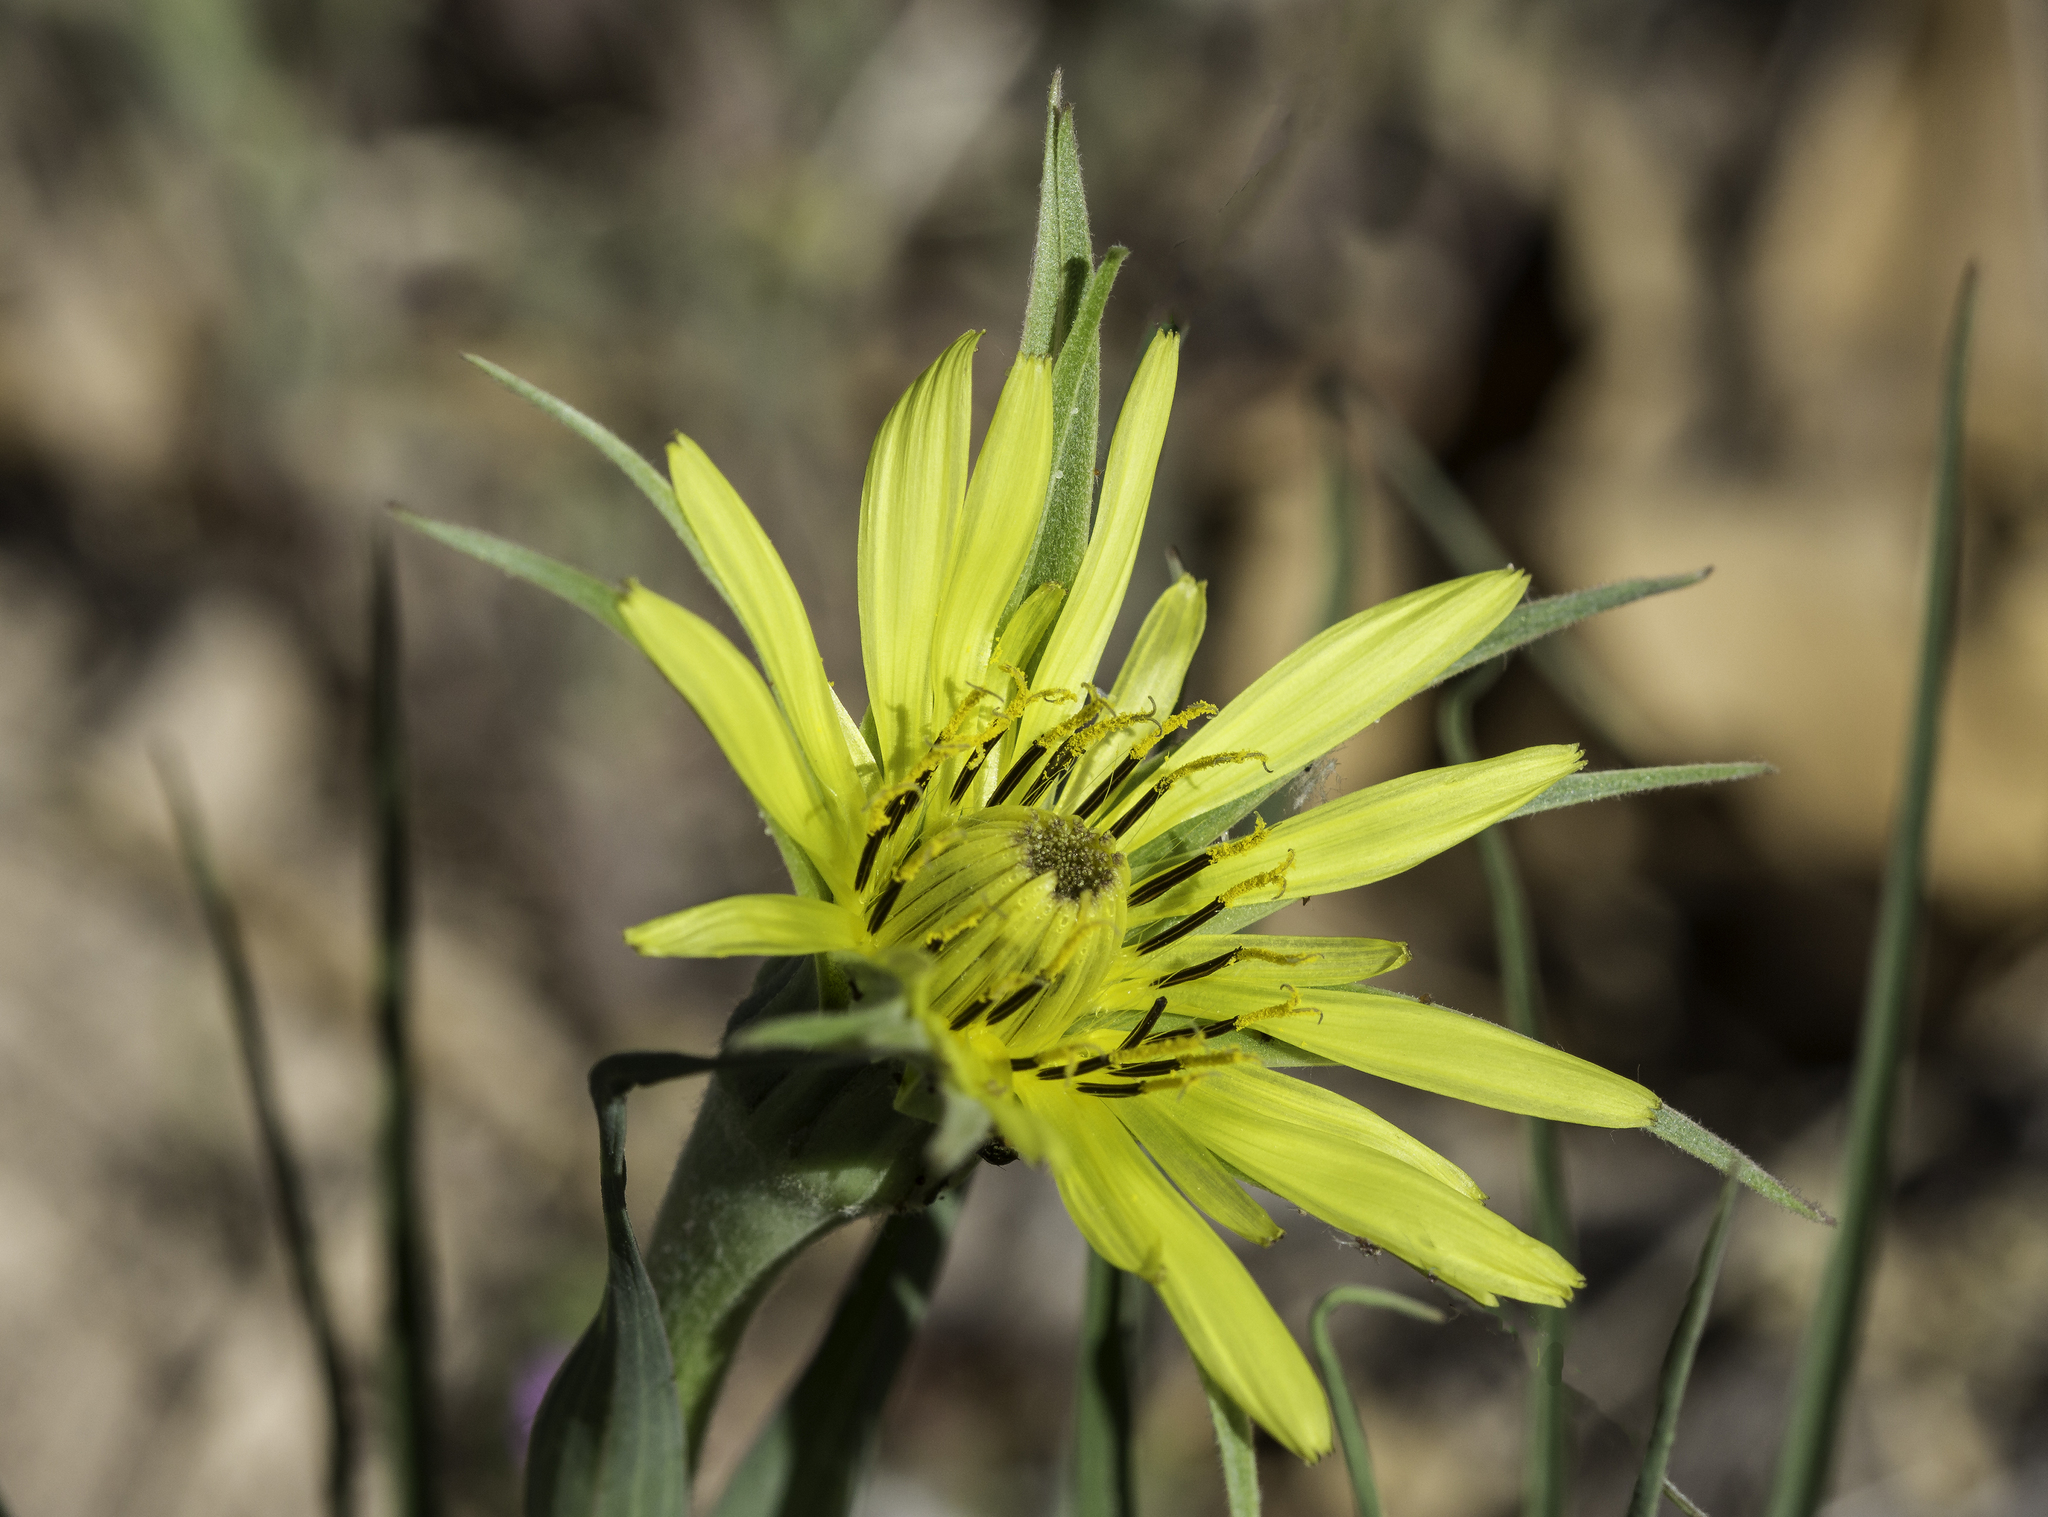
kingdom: Plantae
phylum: Tracheophyta
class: Magnoliopsida
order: Asterales
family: Asteraceae
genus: Tragopogon
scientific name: Tragopogon dubius
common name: Yellow salsify
